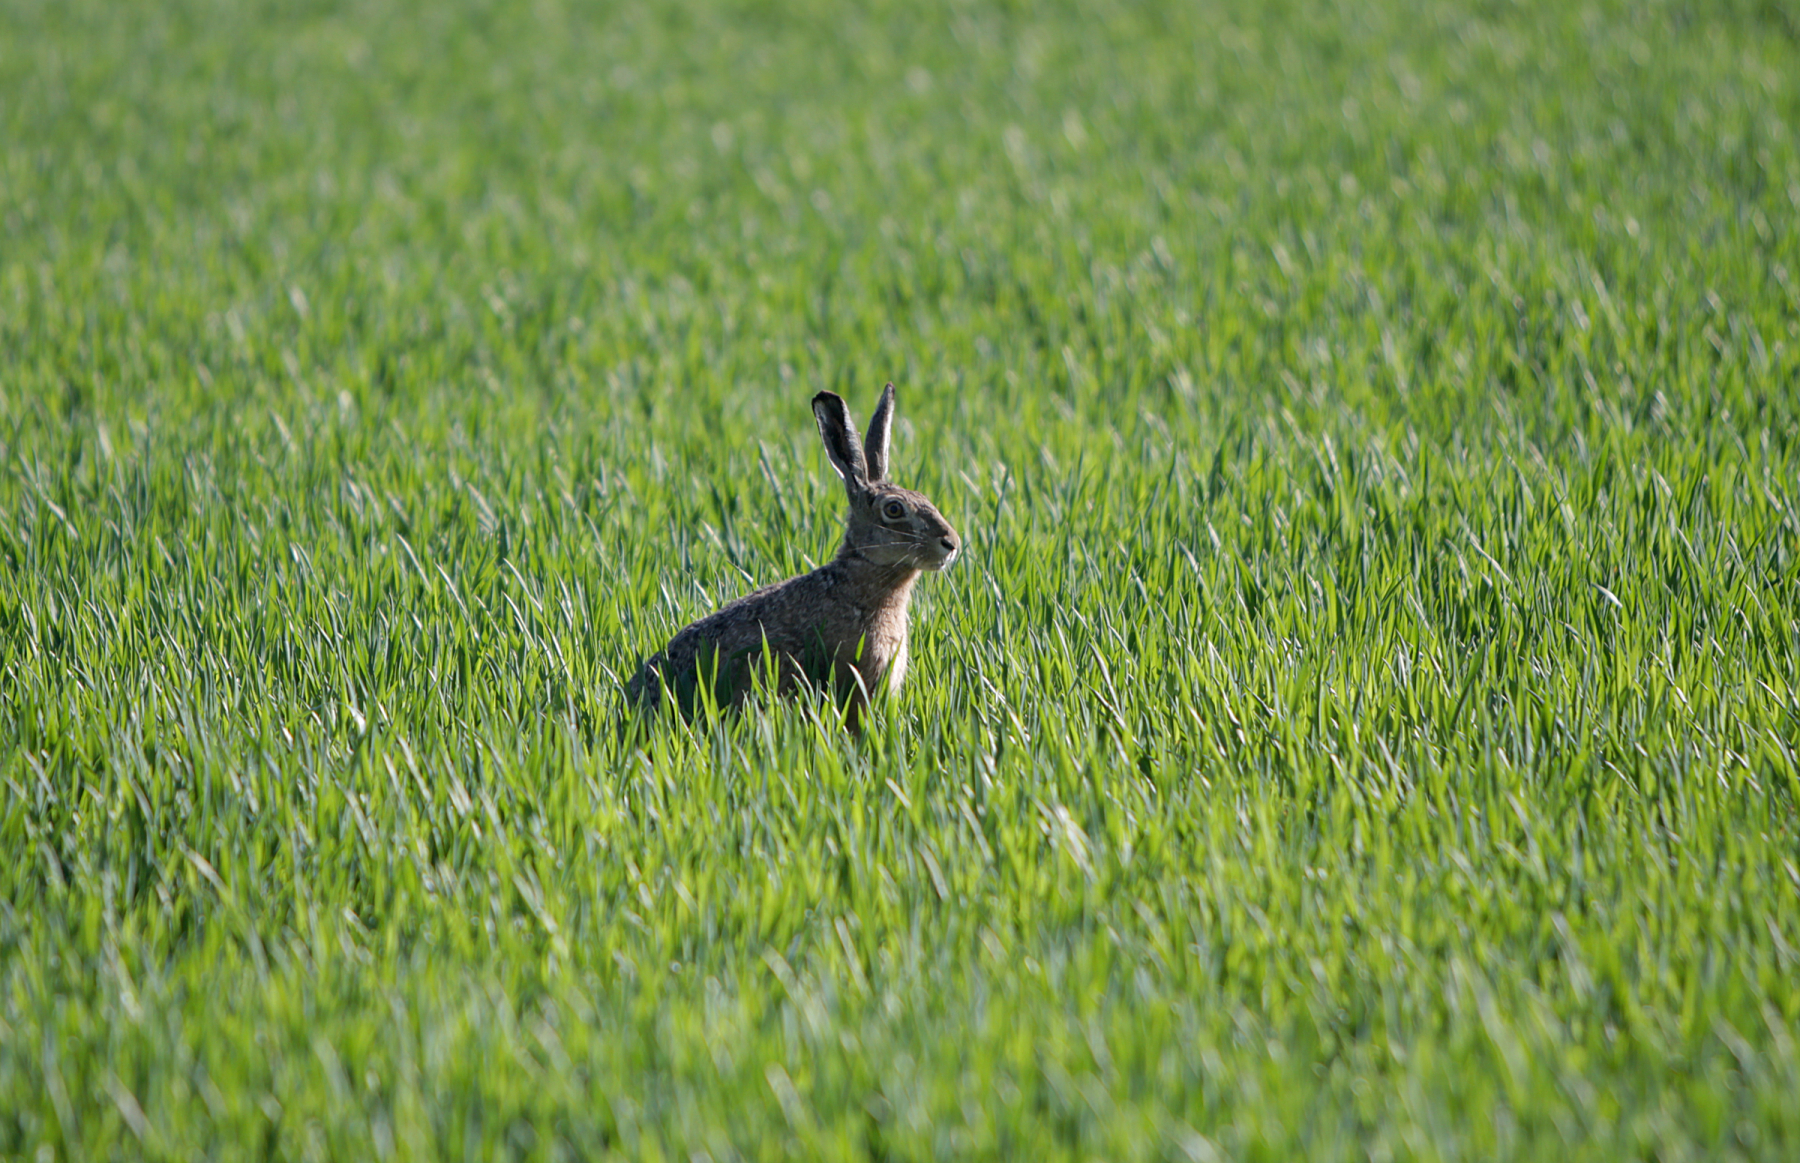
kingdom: Animalia
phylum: Chordata
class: Mammalia
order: Lagomorpha
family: Leporidae
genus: Lepus
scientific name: Lepus europaeus
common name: European hare
